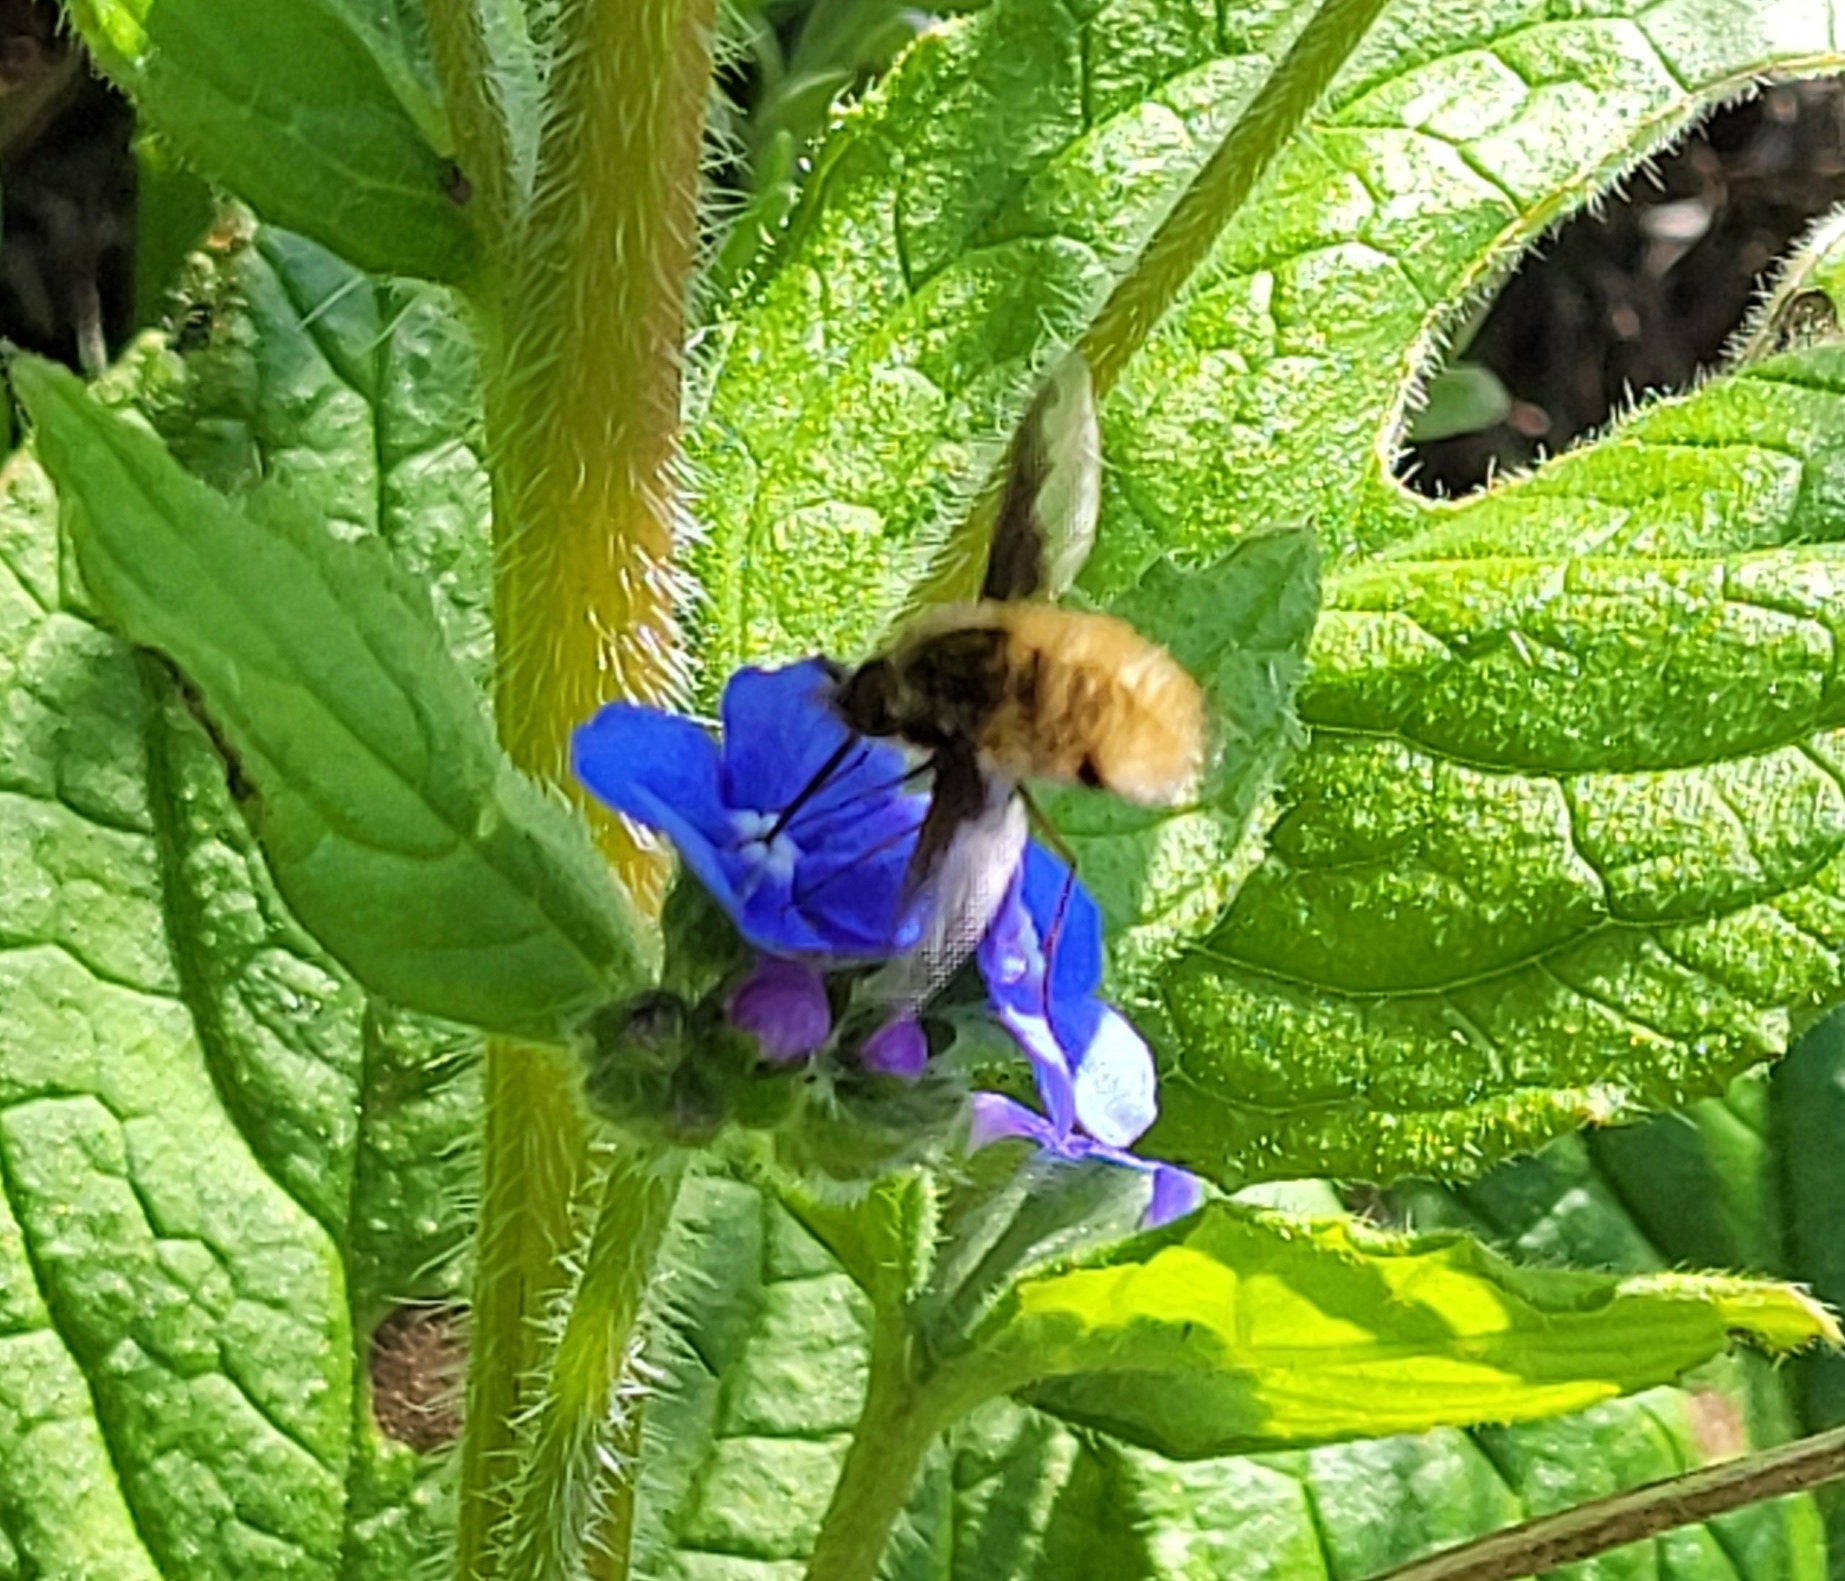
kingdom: Animalia
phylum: Arthropoda
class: Insecta
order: Diptera
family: Bombyliidae
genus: Bombylius
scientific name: Bombylius major
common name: Bee fly
